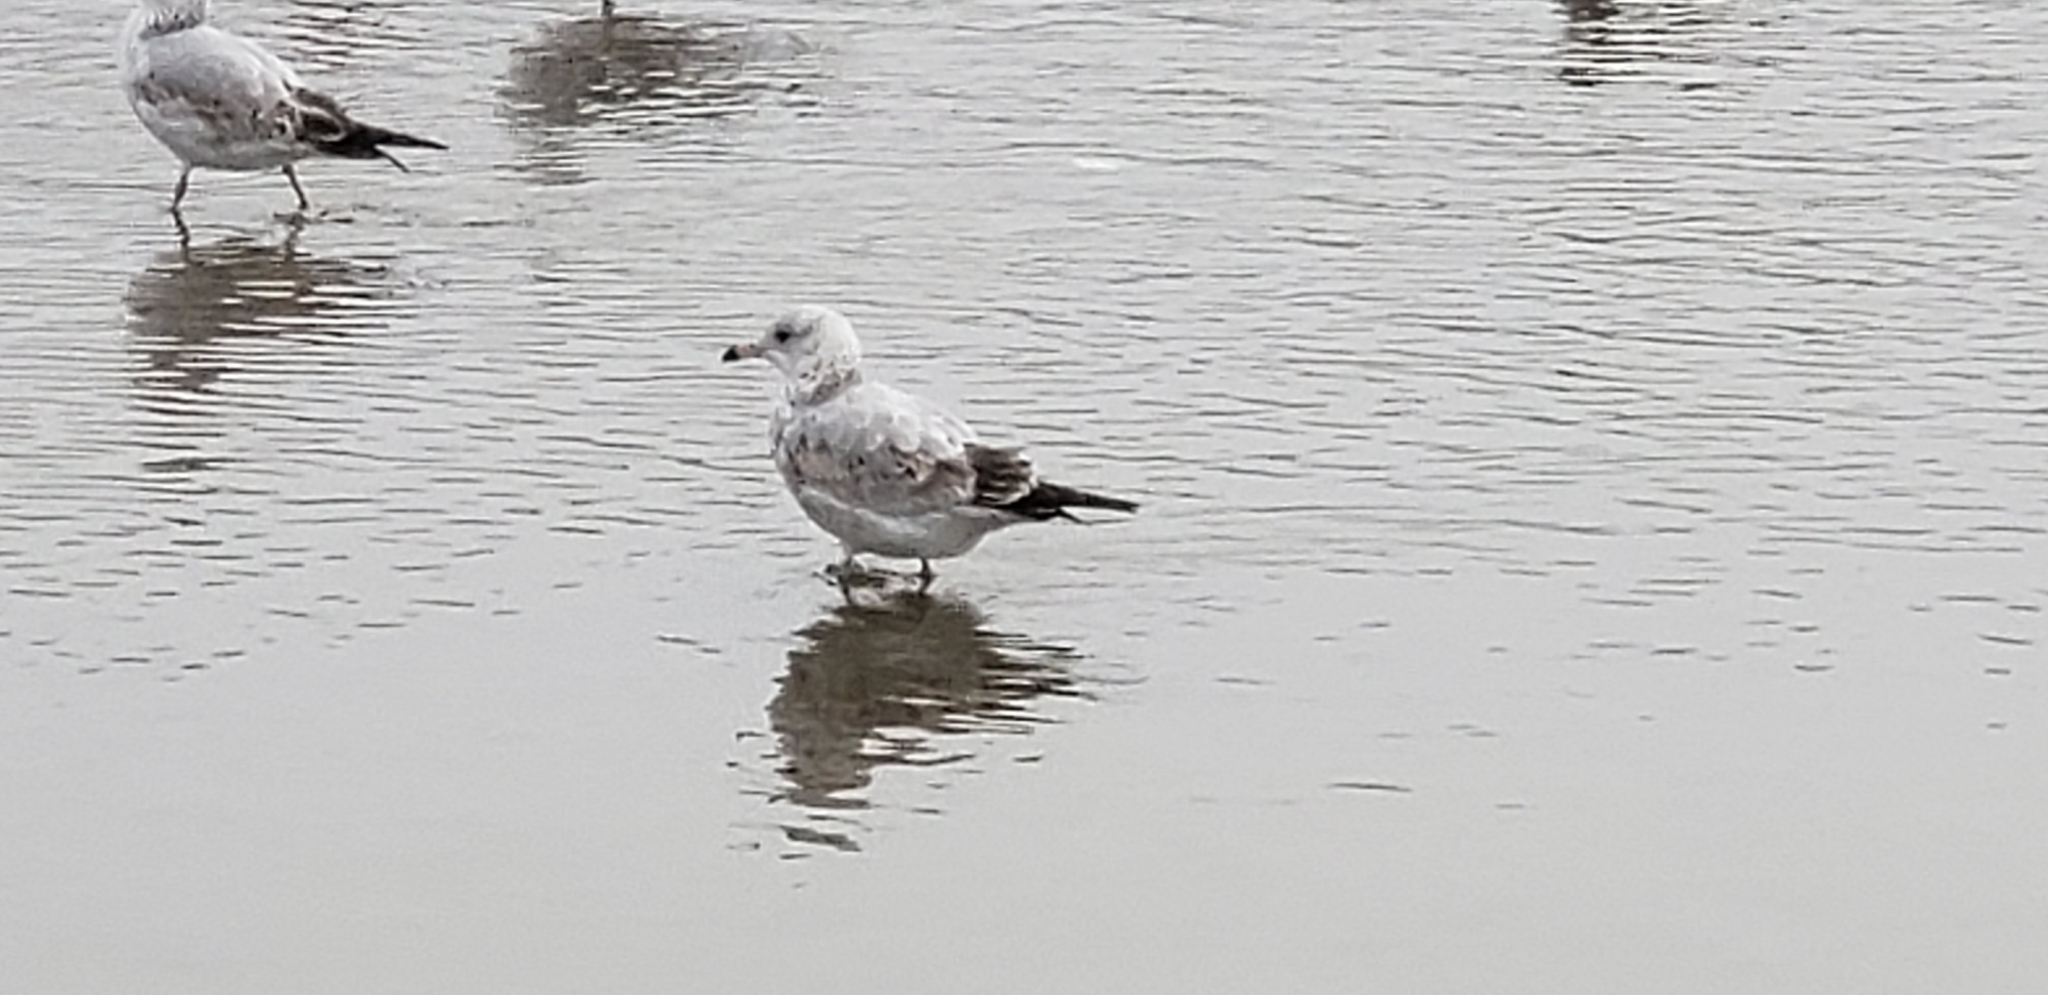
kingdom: Animalia
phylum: Chordata
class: Aves
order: Charadriiformes
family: Laridae
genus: Larus
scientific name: Larus delawarensis
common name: Ring-billed gull
